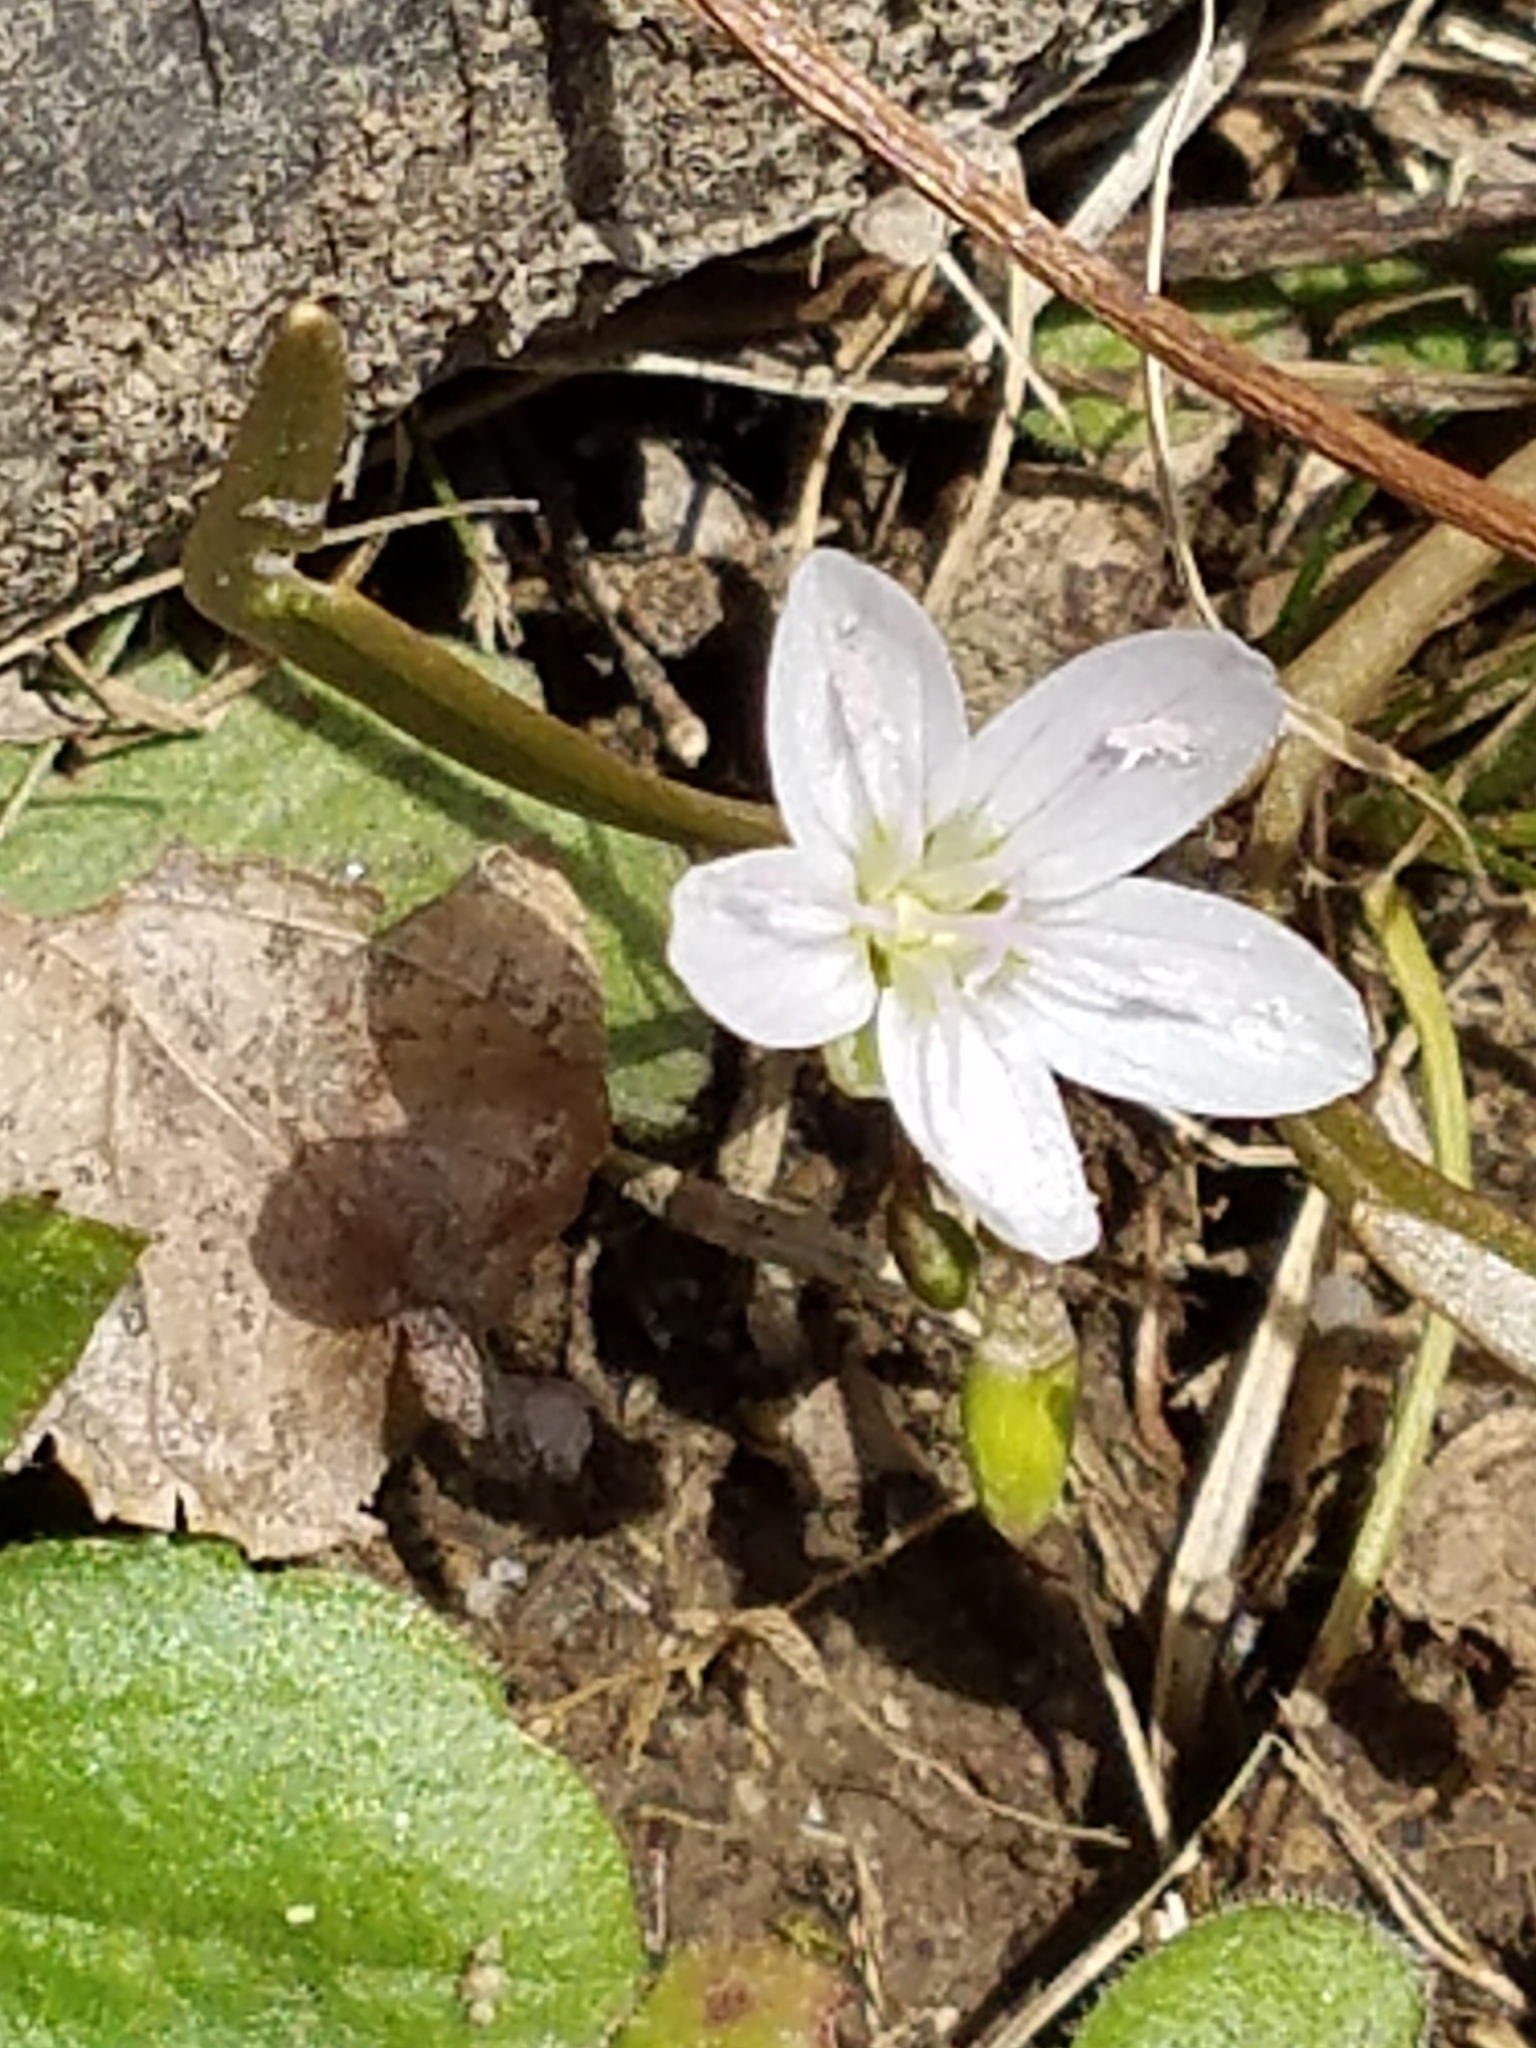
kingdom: Plantae
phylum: Tracheophyta
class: Magnoliopsida
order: Caryophyllales
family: Montiaceae
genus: Claytonia
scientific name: Claytonia virginica
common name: Virginia springbeauty
